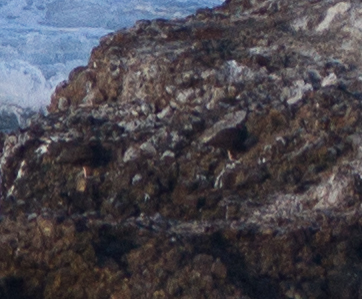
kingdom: Animalia
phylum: Chordata
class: Aves
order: Charadriiformes
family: Haematopodidae
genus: Haematopus
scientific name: Haematopus bachmani
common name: Black oystercatcher
